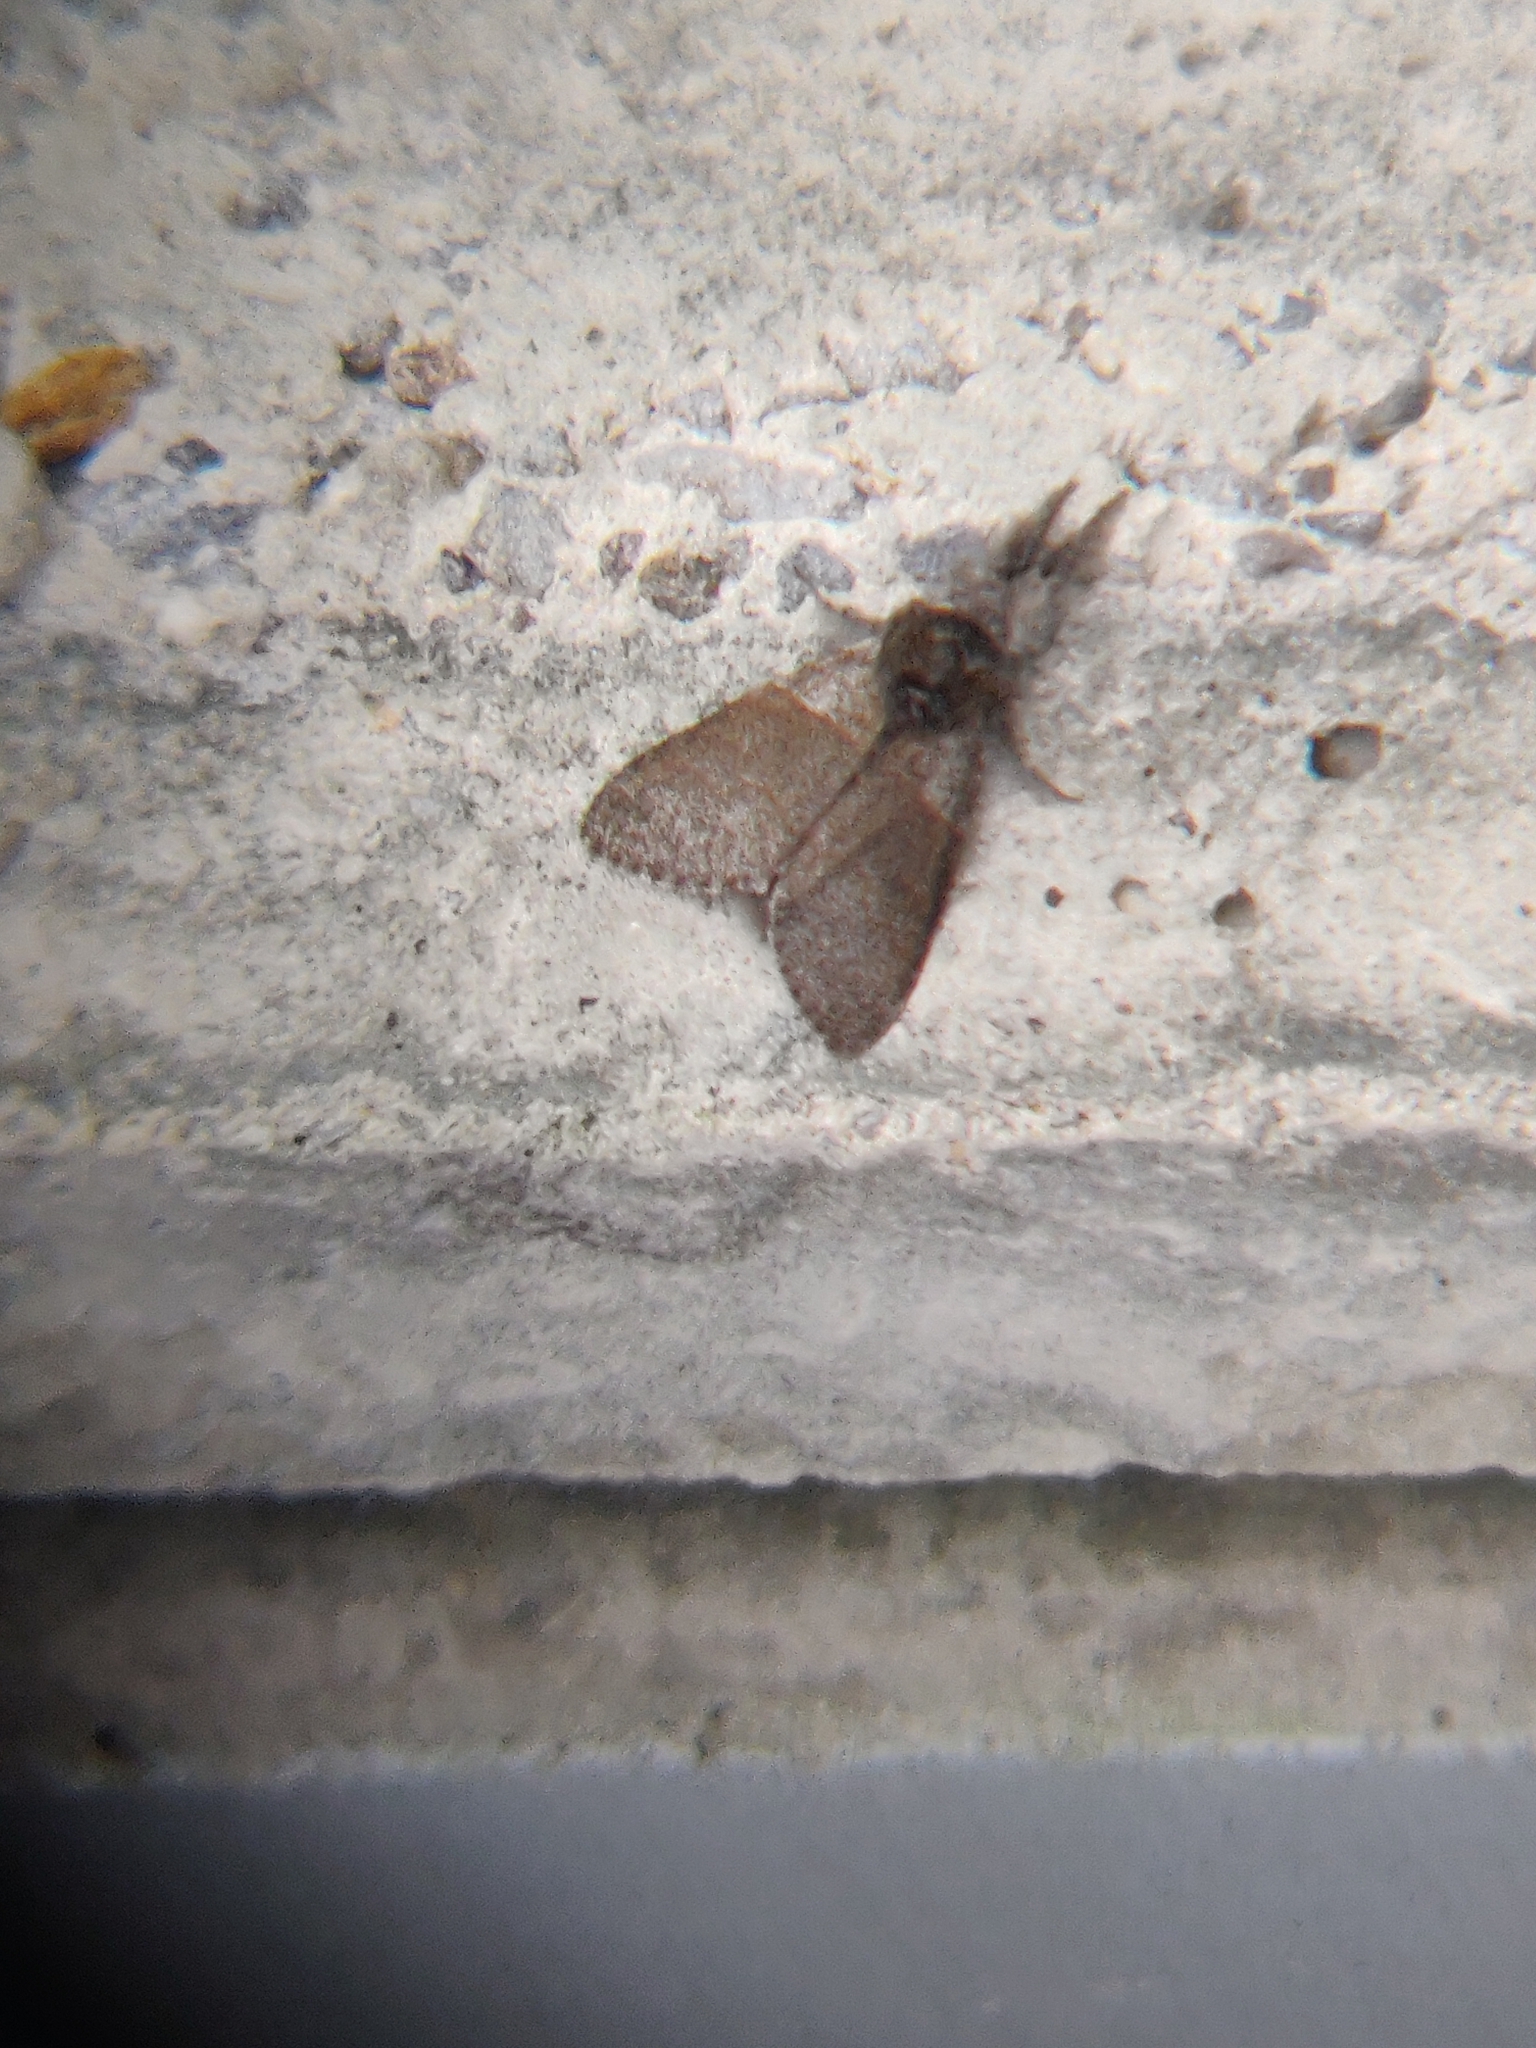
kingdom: Animalia
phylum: Arthropoda
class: Insecta
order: Lepidoptera
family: Erebidae
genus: Calliteara
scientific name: Calliteara pudibunda
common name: Pale tussock
